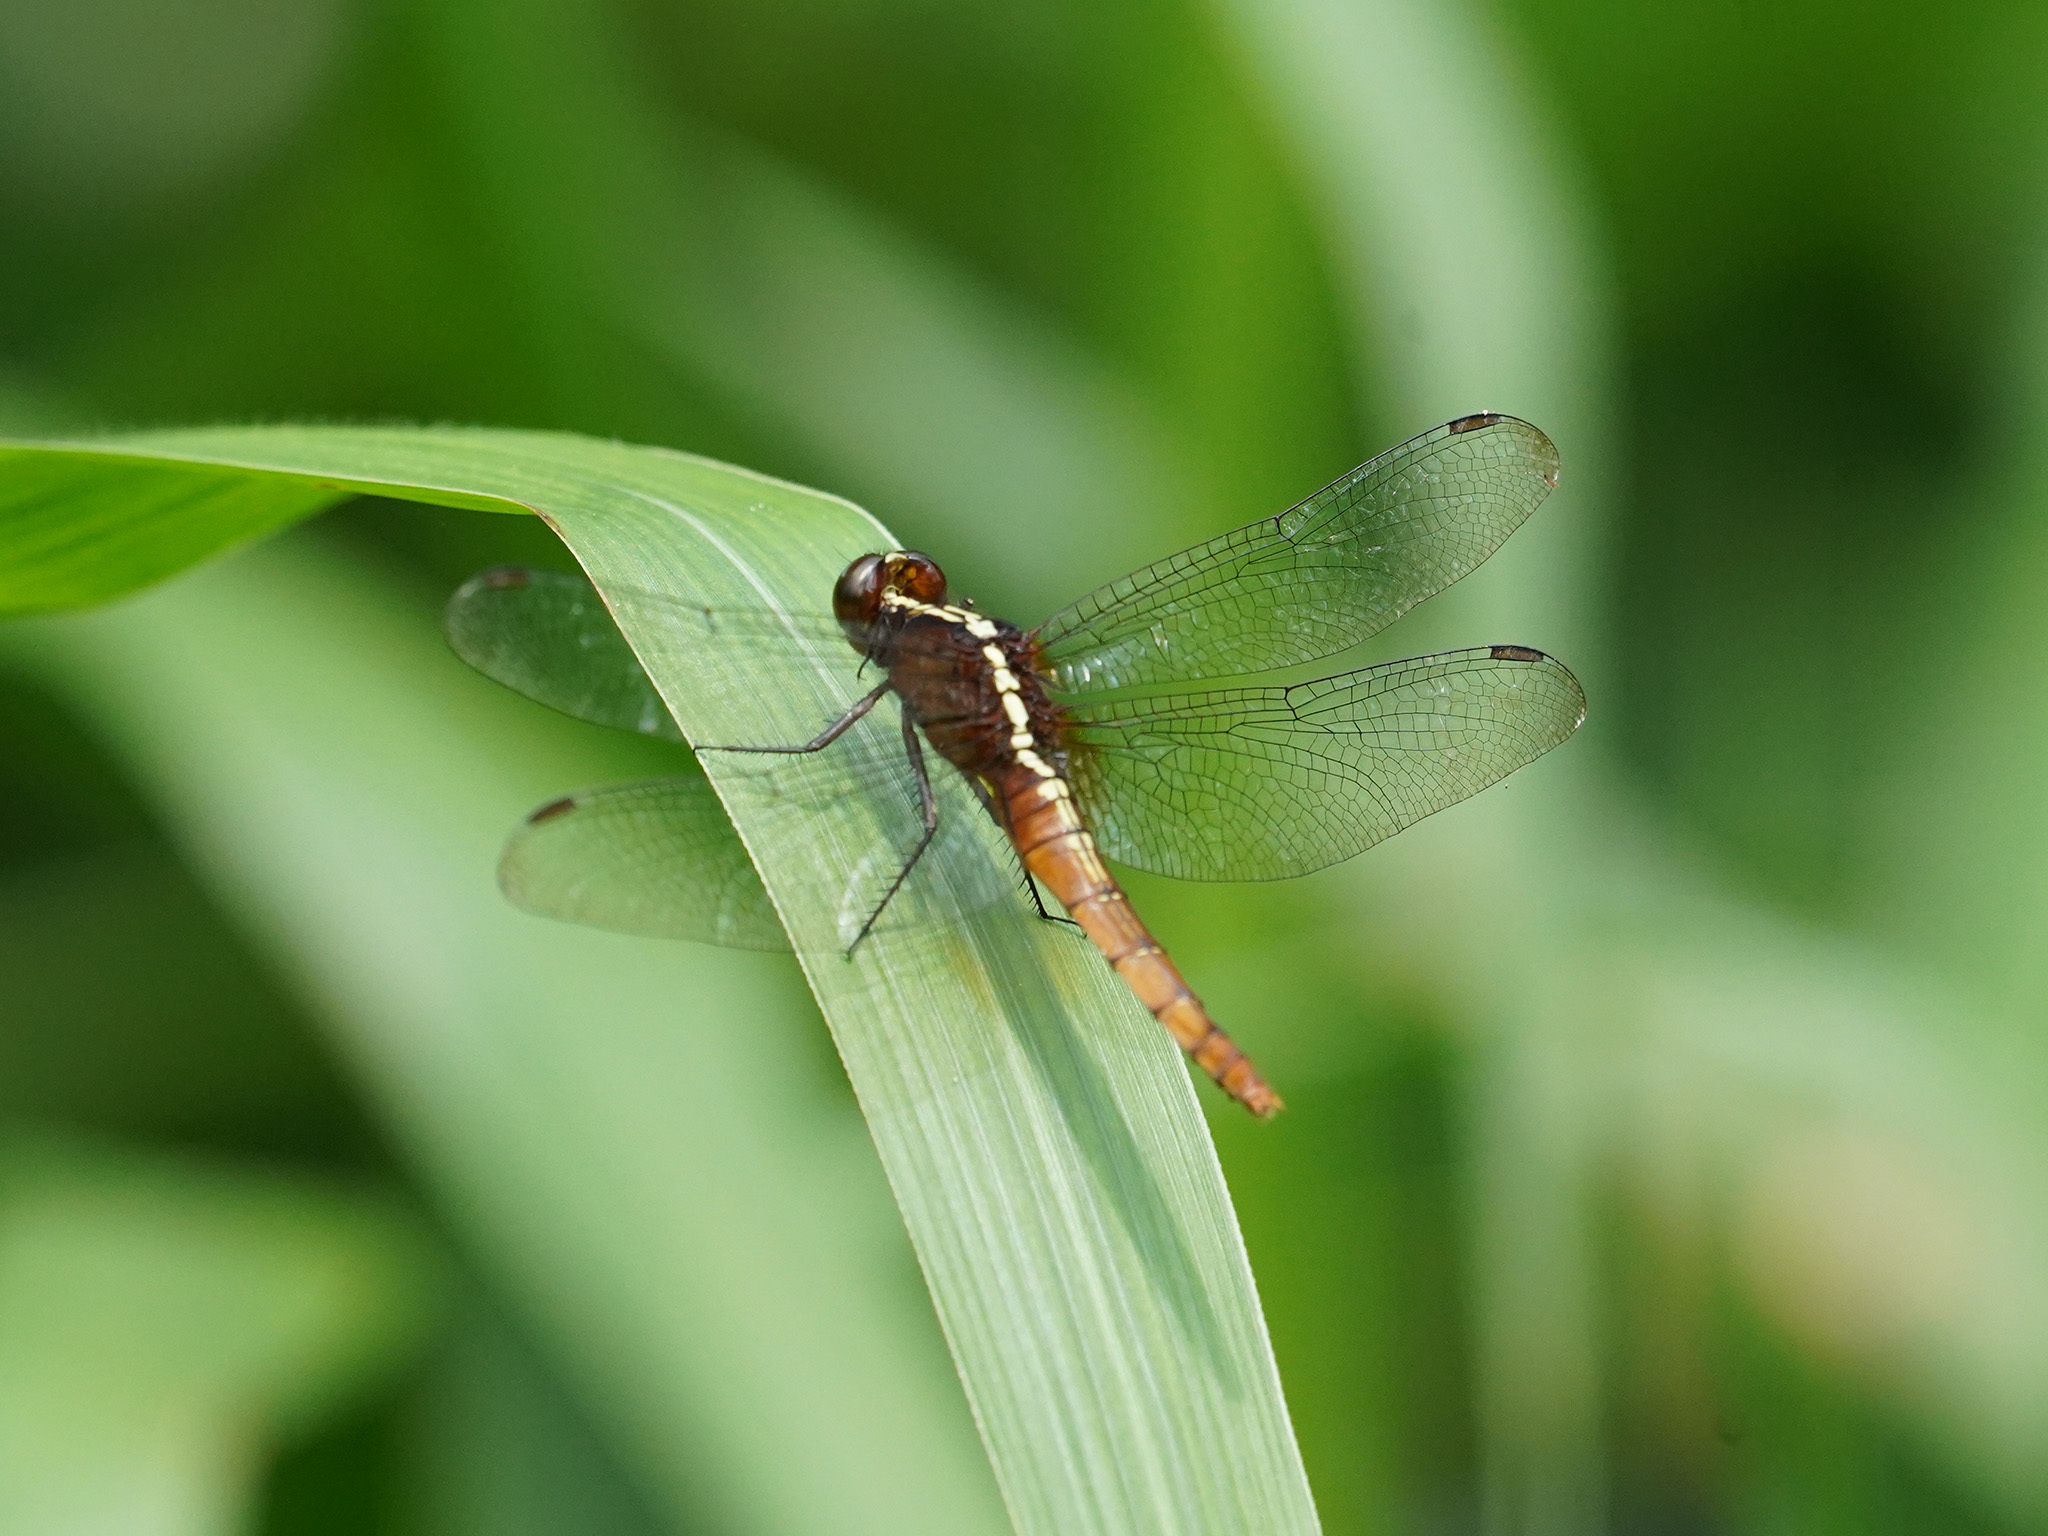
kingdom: Animalia
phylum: Arthropoda
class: Insecta
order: Odonata
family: Libellulidae
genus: Rhodothemis
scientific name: Rhodothemis rufa
